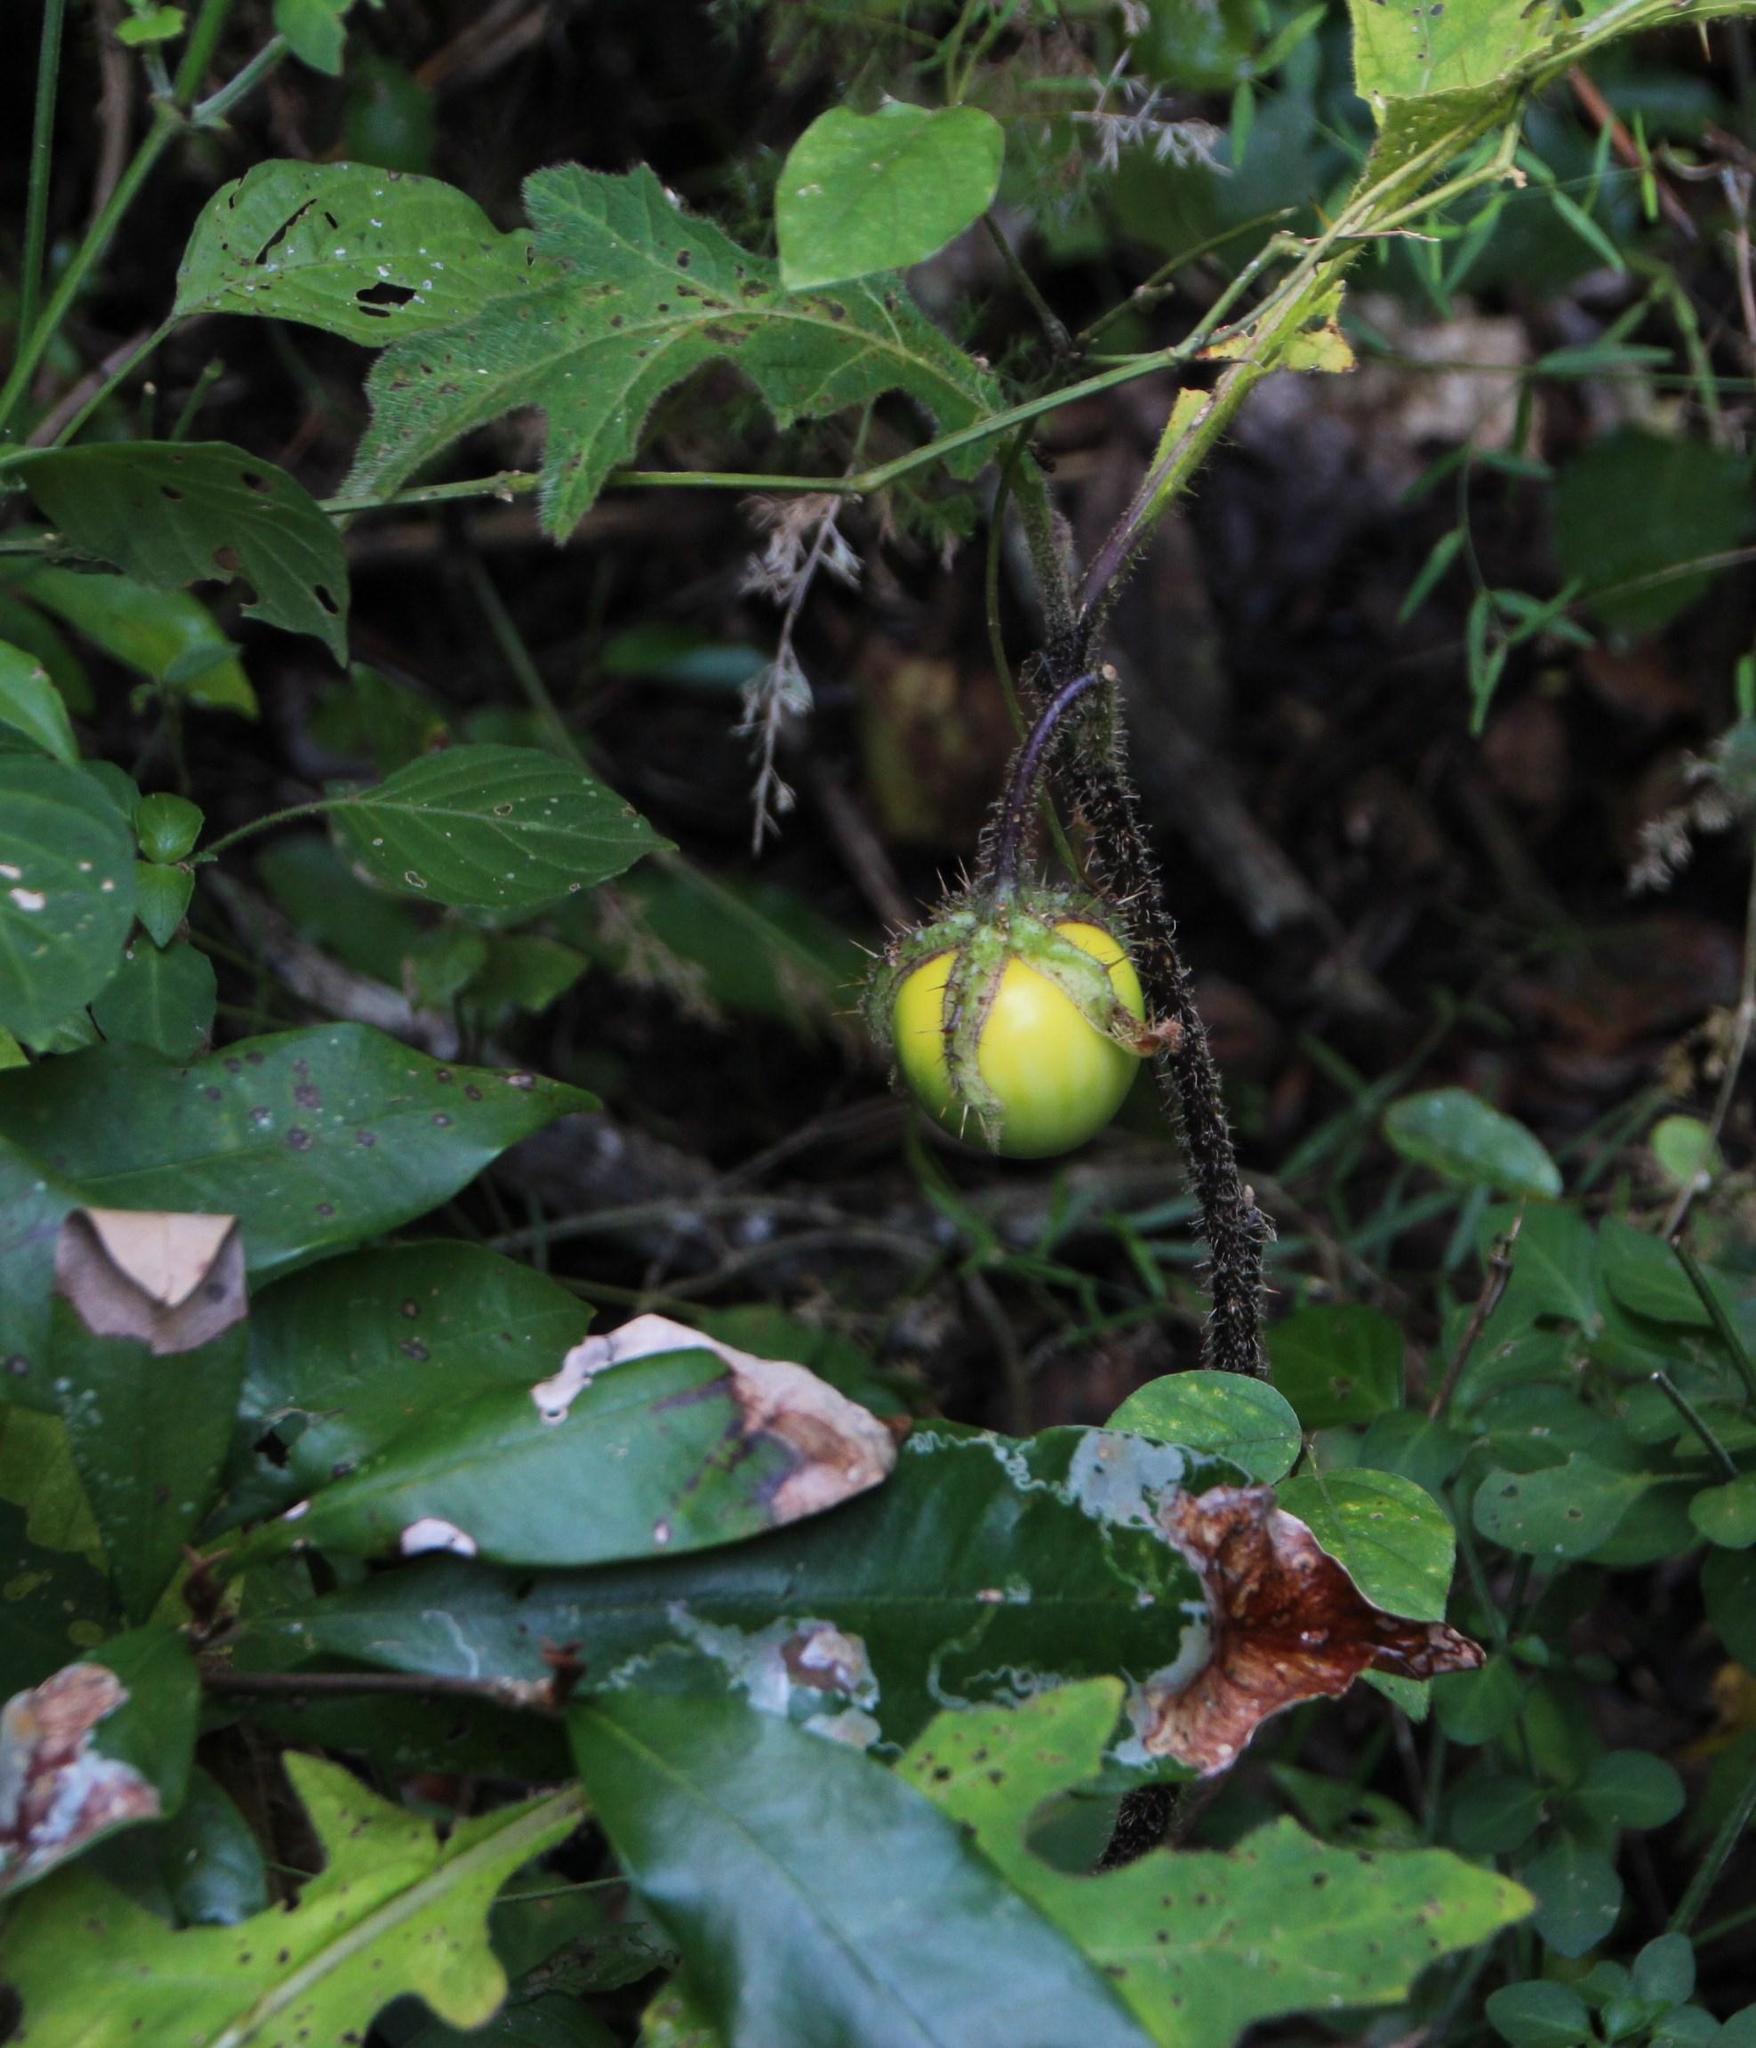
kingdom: Plantae
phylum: Tracheophyta
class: Magnoliopsida
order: Solanales
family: Solanaceae
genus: Solanum
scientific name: Solanum dasyphyllum
